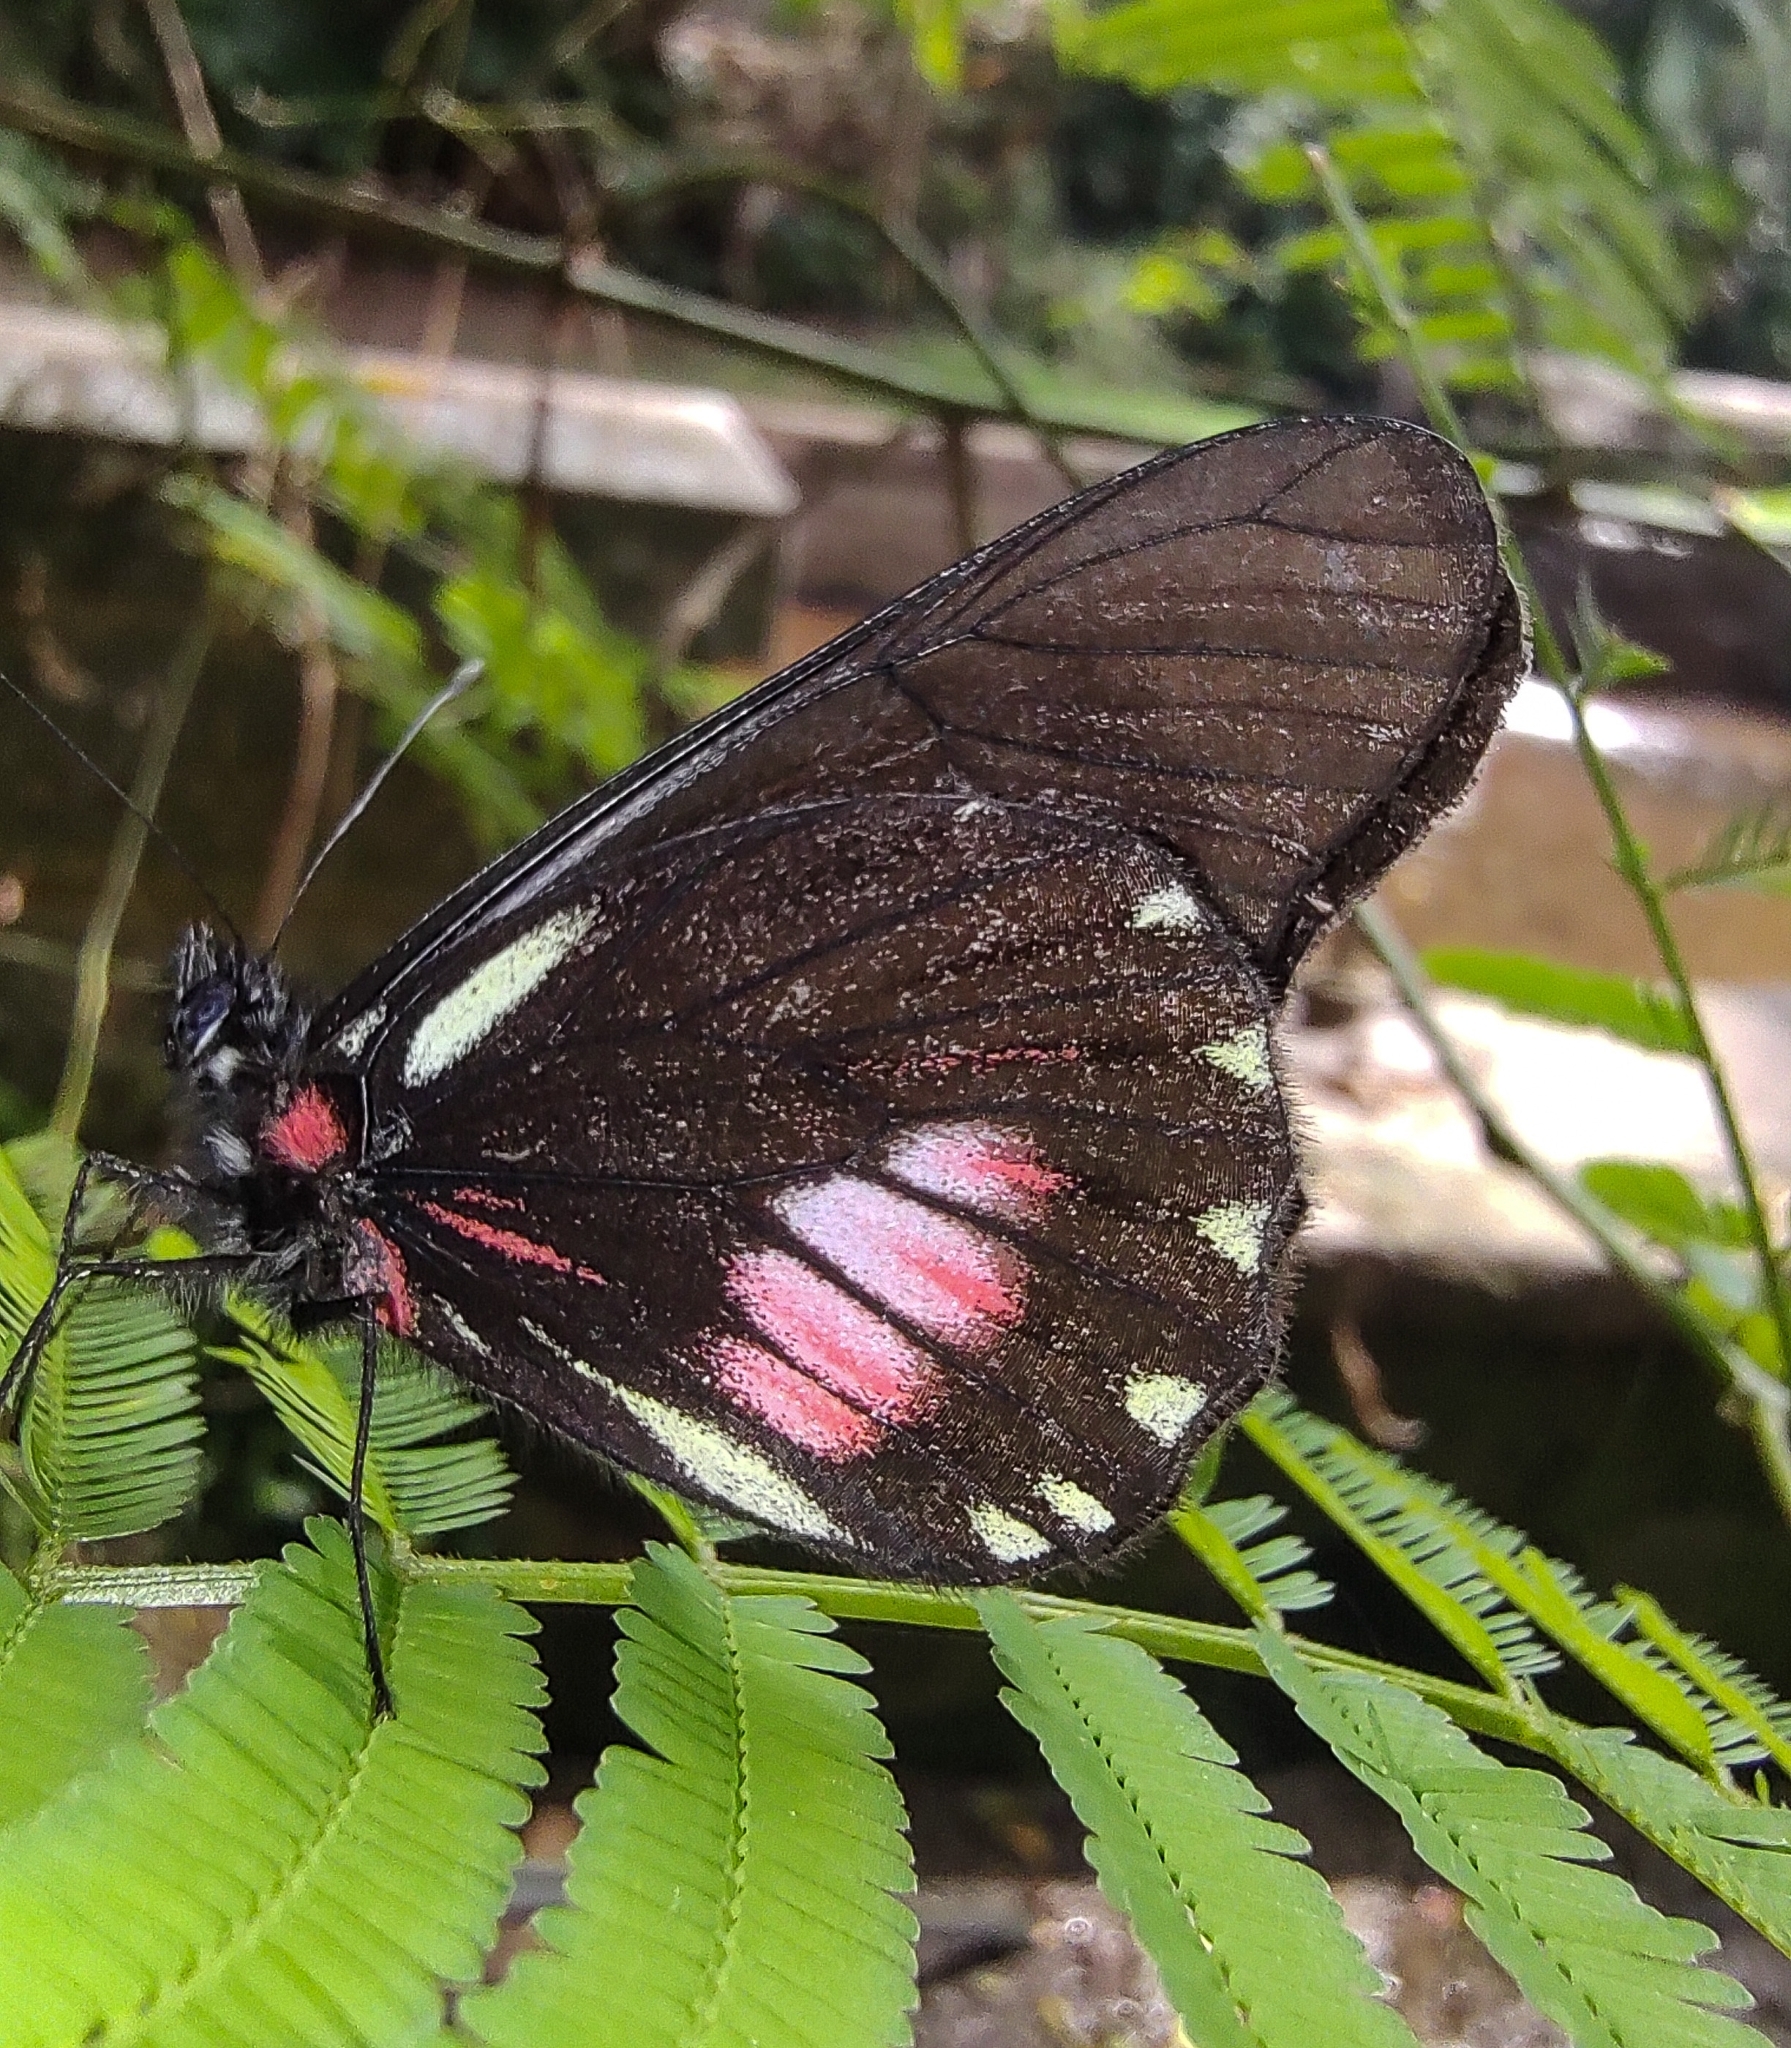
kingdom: Animalia
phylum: Arthropoda
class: Insecta
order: Lepidoptera
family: Pieridae
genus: Archonias
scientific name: Archonias brassolis
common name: Cattleheart white
